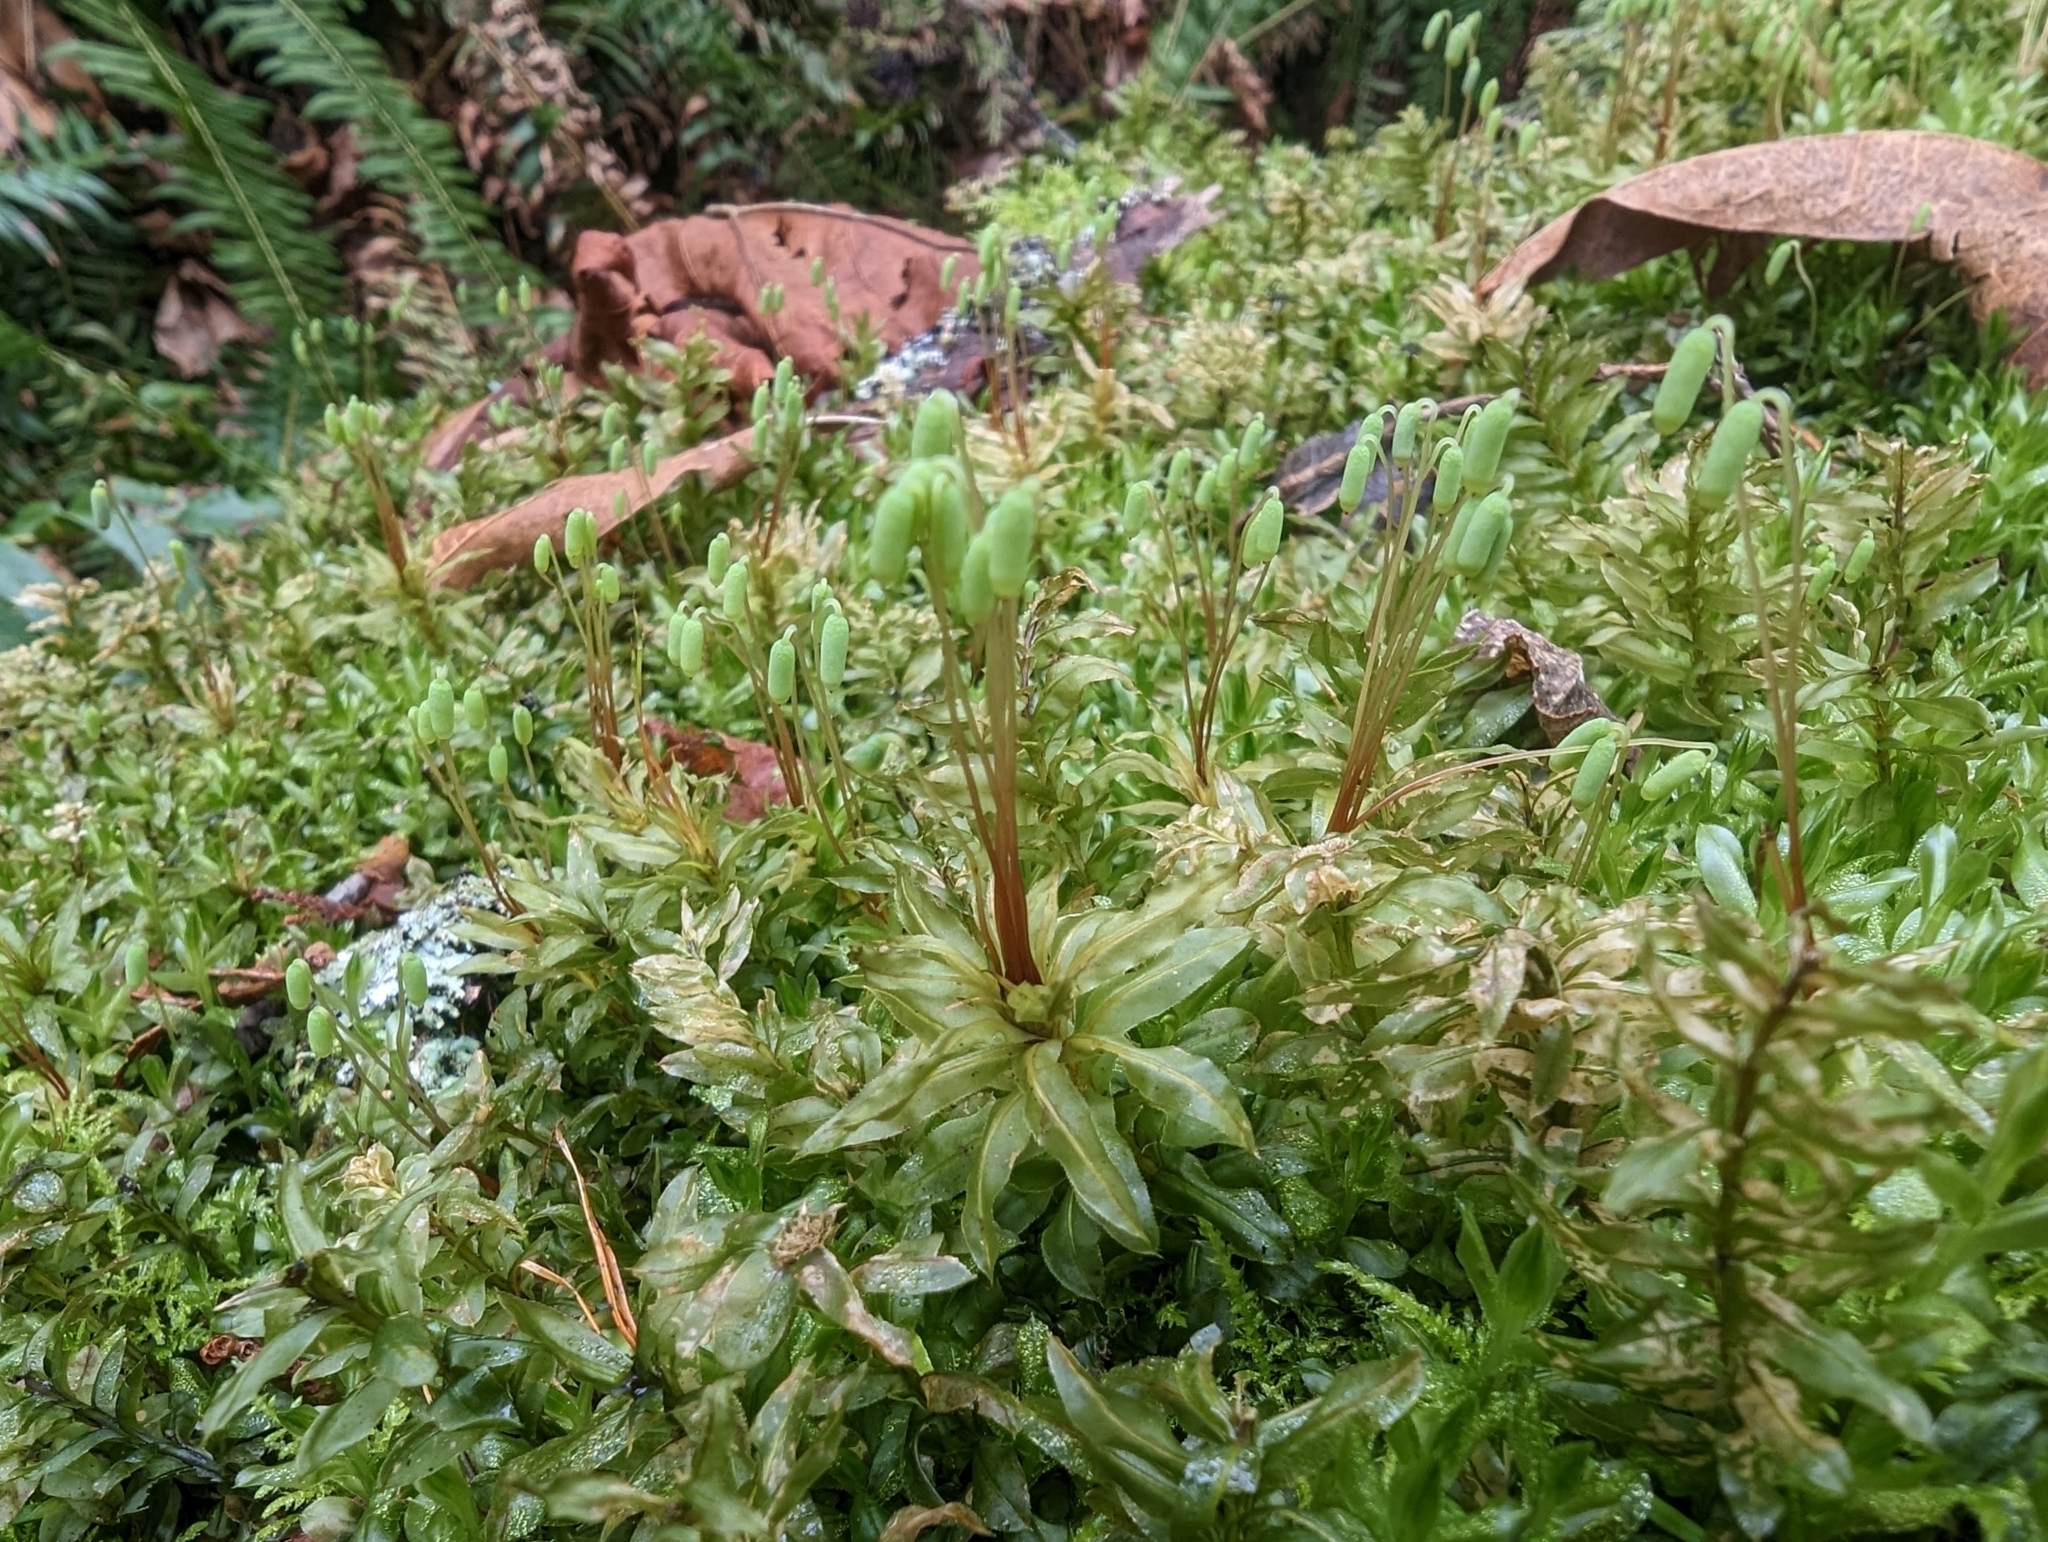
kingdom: Plantae
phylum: Bryophyta
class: Bryopsida
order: Bryales
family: Mniaceae
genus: Plagiomnium
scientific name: Plagiomnium insigne
